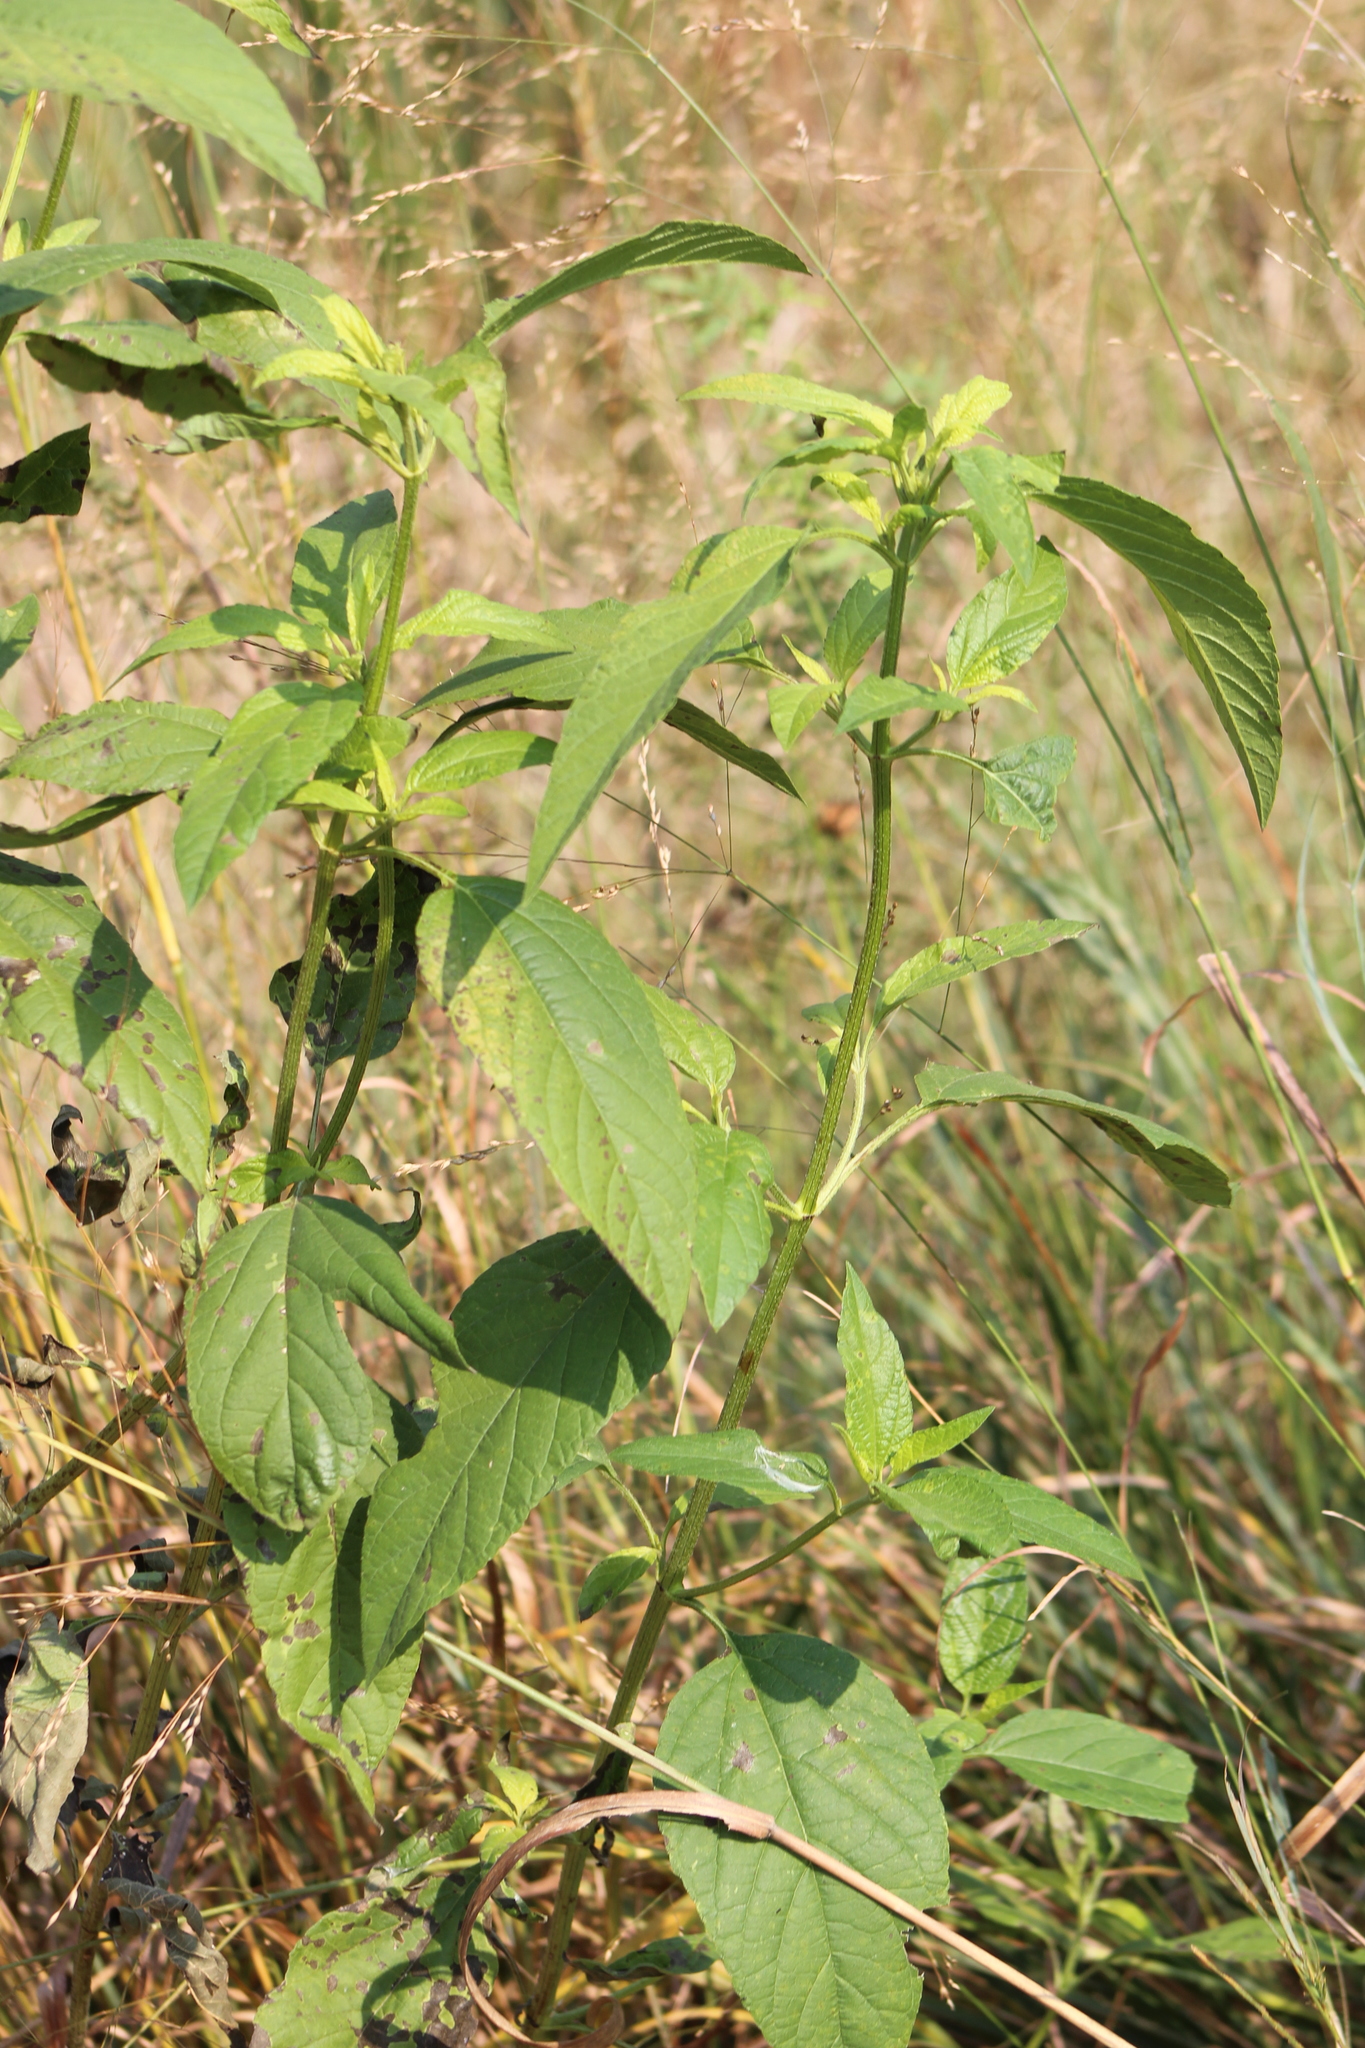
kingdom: Plantae
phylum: Tracheophyta
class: Magnoliopsida
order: Asterales
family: Asteraceae
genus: Ambrosia
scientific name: Ambrosia trifida
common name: Giant ragweed
